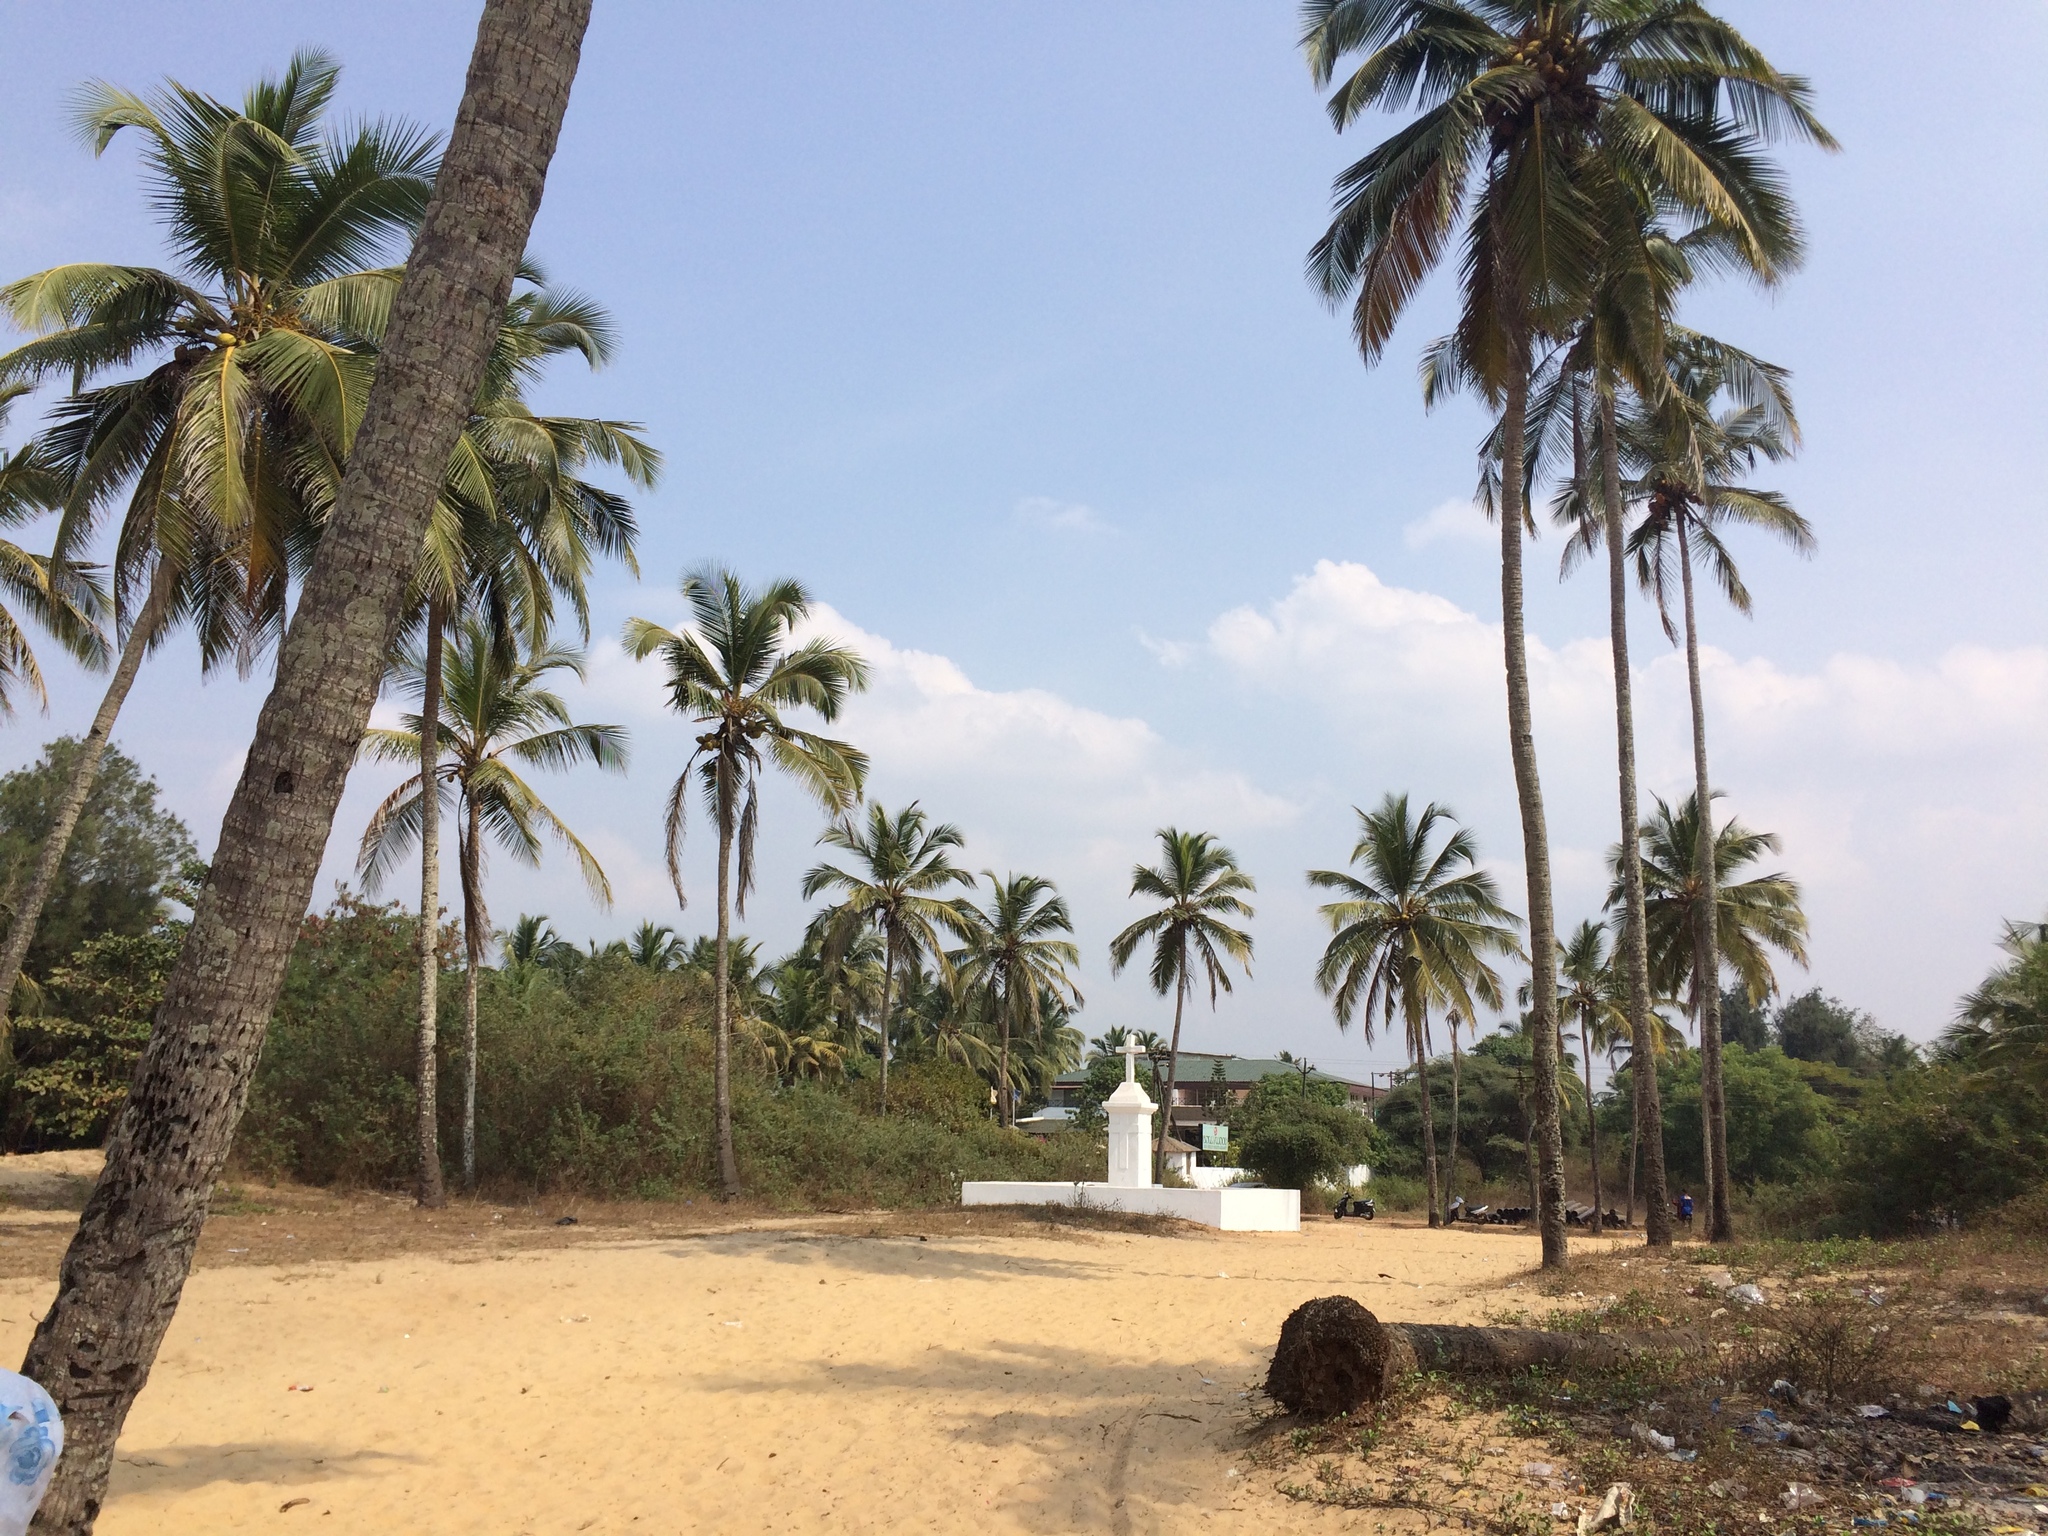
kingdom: Plantae
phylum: Tracheophyta
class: Liliopsida
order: Arecales
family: Arecaceae
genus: Cocos
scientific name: Cocos nucifera
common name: Coconut palm
